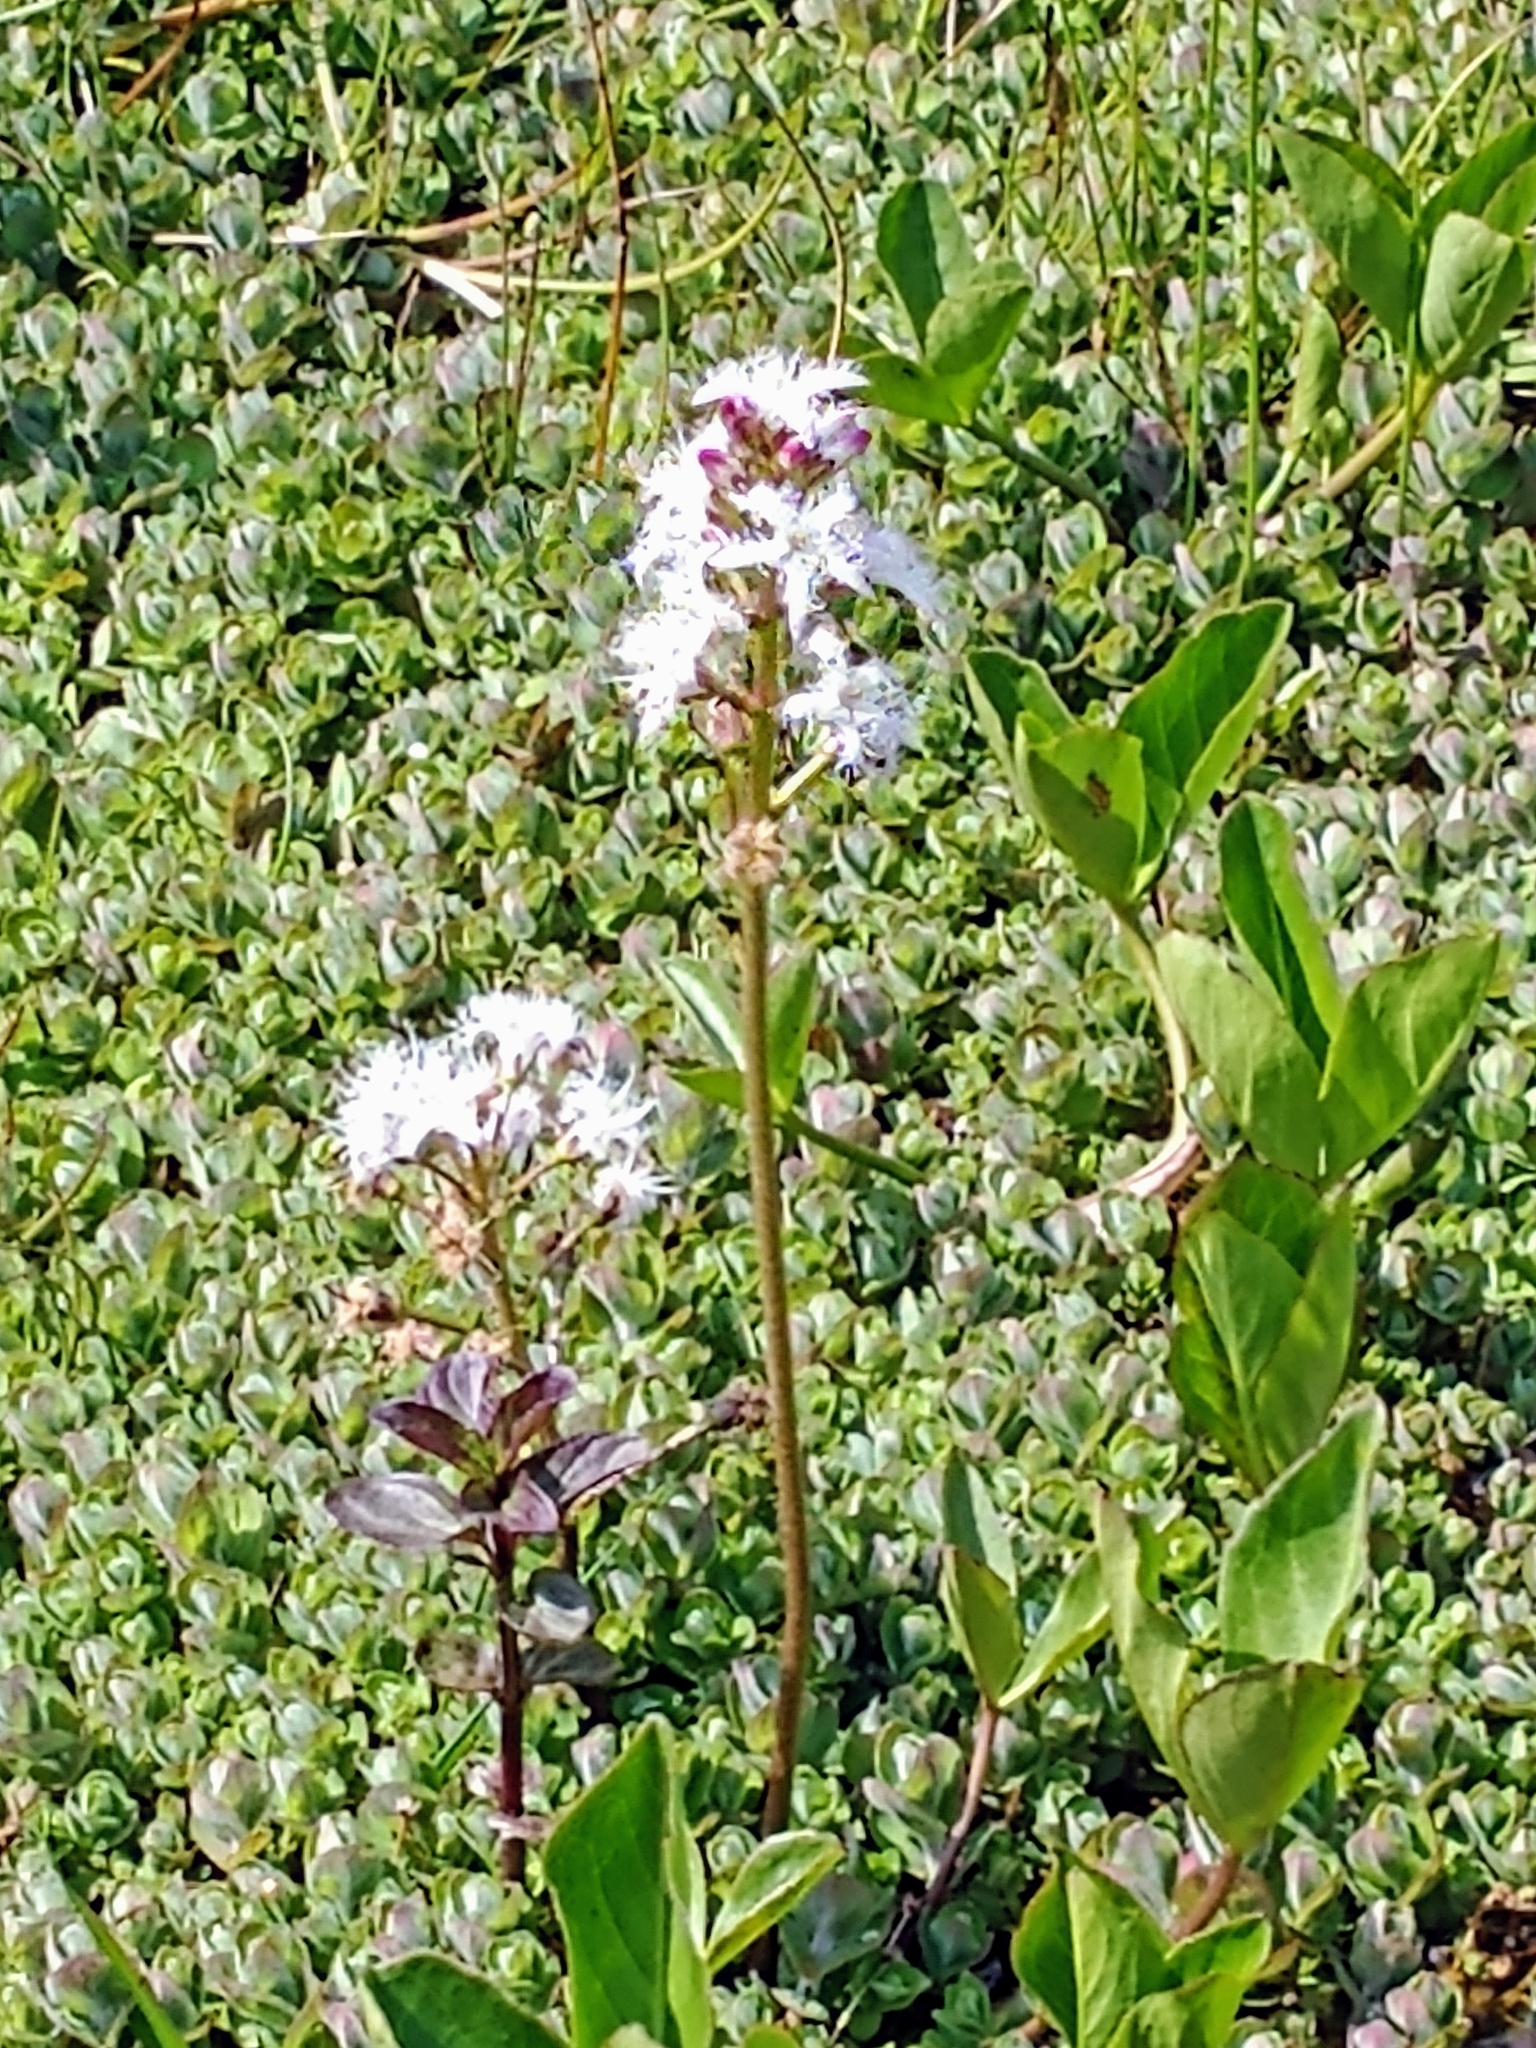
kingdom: Plantae
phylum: Tracheophyta
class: Magnoliopsida
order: Asterales
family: Menyanthaceae
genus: Menyanthes
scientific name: Menyanthes trifoliata
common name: Bogbean
